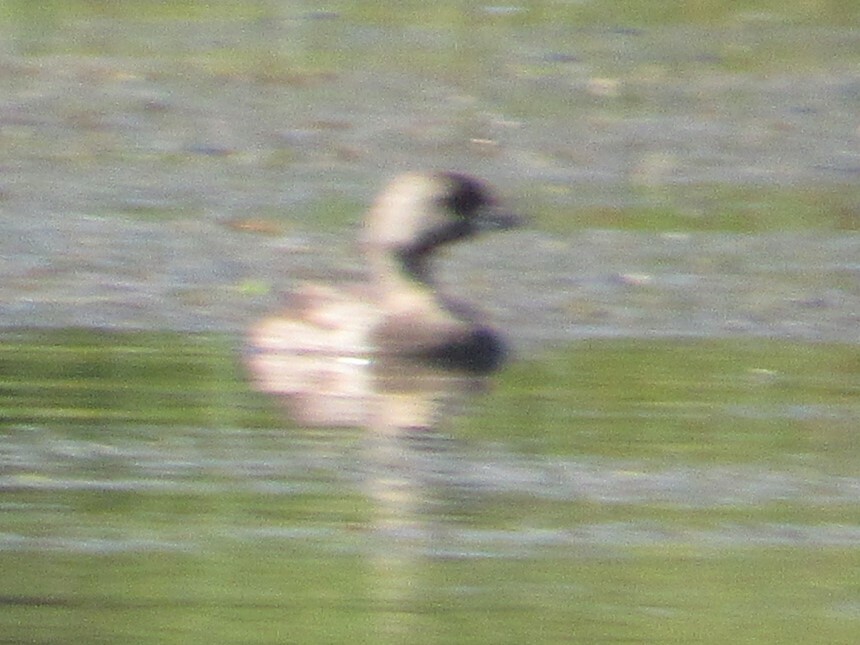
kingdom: Animalia
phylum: Chordata
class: Aves
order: Podicipediformes
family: Podicipedidae
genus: Podilymbus
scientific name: Podilymbus podiceps
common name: Pied-billed grebe
